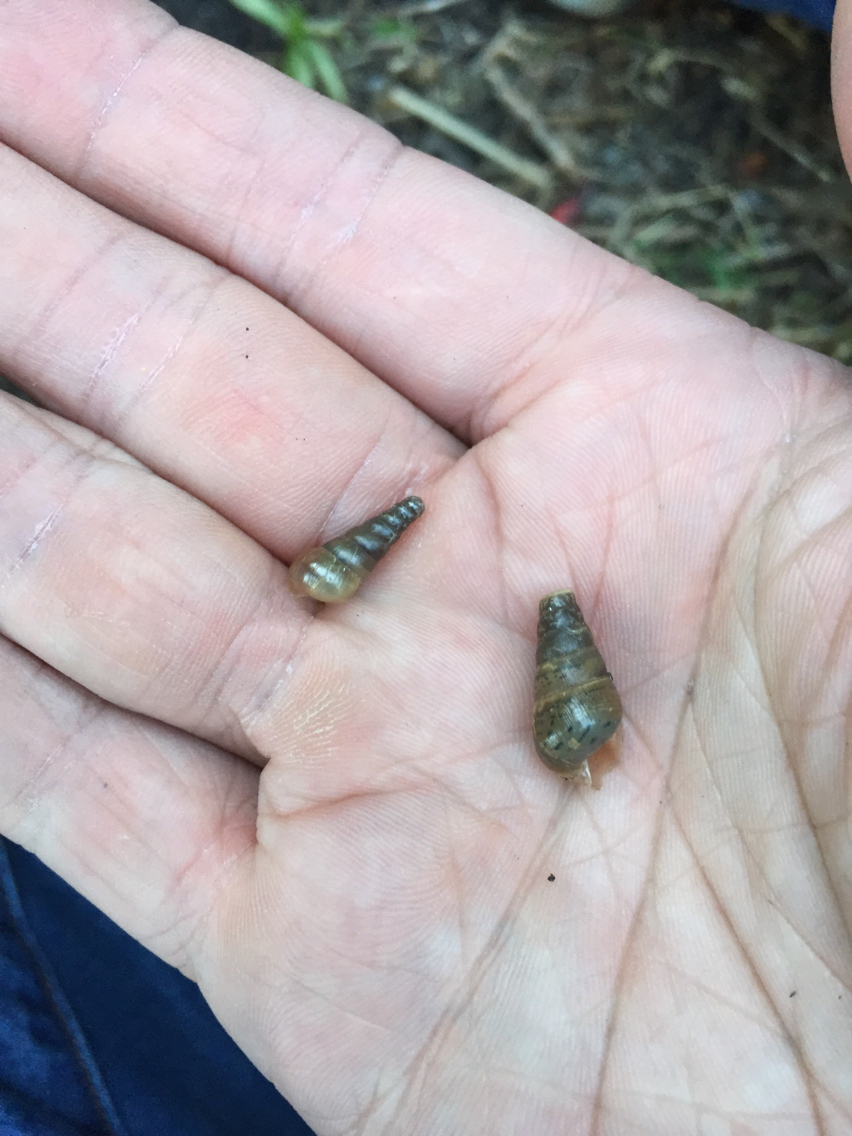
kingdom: Animalia
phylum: Mollusca
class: Gastropoda
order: Stylommatophora
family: Achatinidae
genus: Rumina
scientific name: Rumina decollata
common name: Decollate snail
